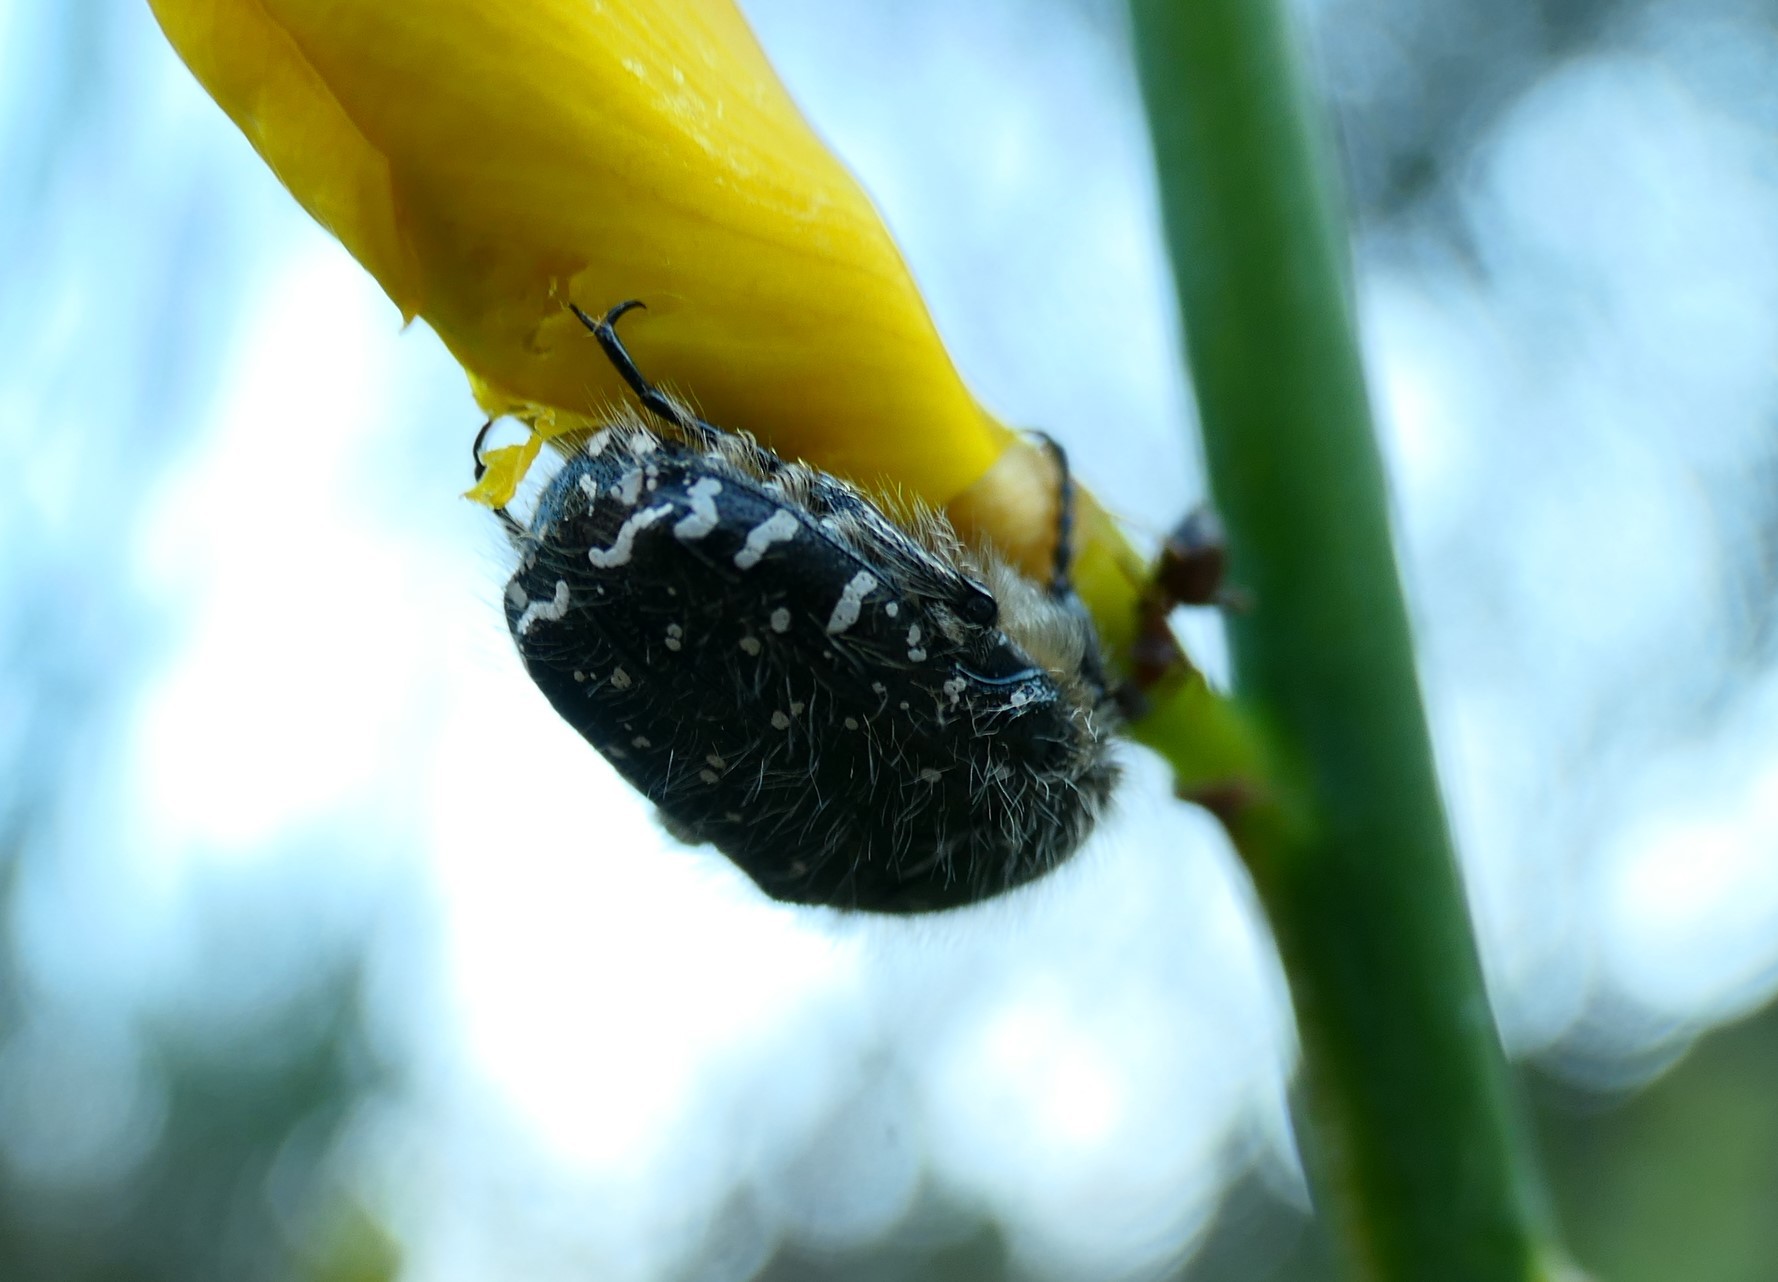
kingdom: Animalia
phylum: Arthropoda
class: Insecta
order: Coleoptera
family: Scarabaeidae
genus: Oxythyrea
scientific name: Oxythyrea funesta
